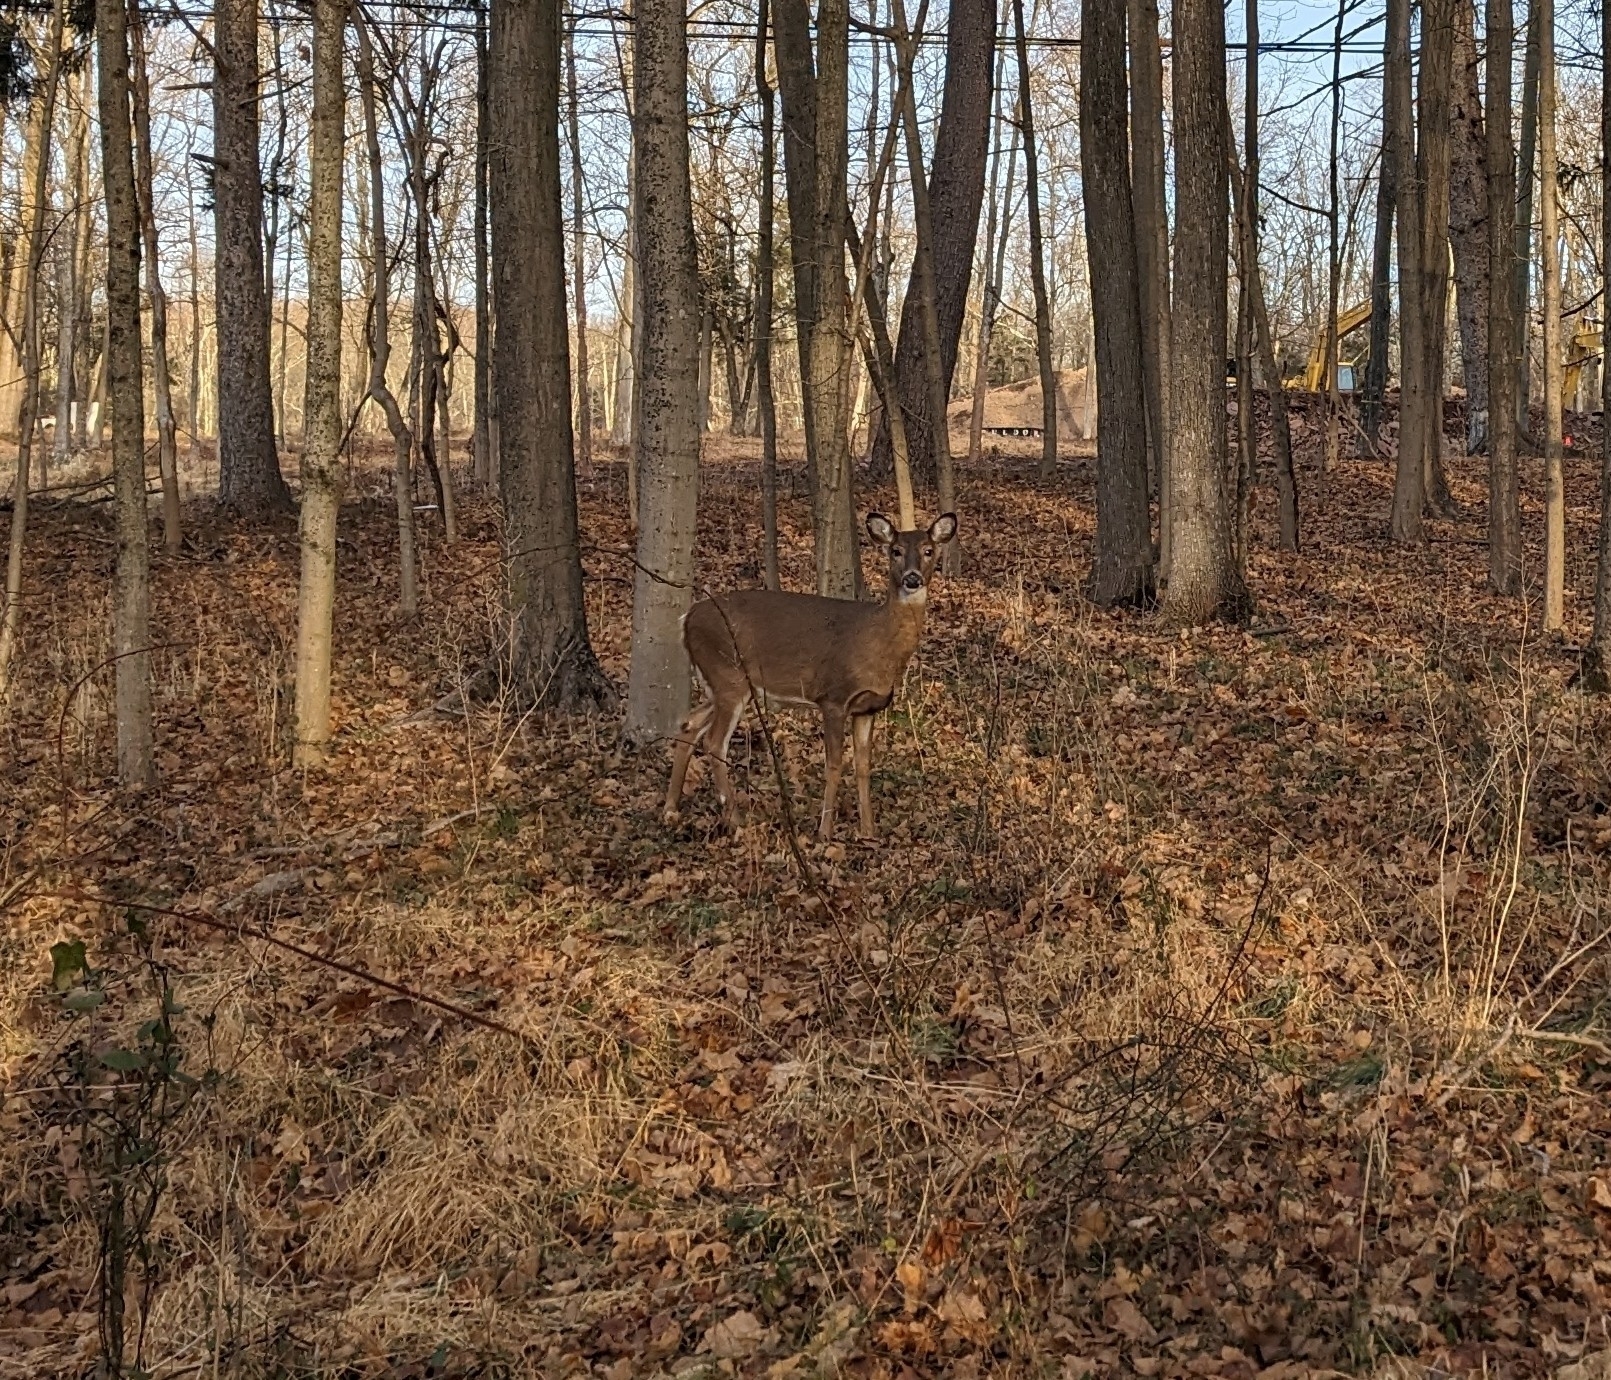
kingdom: Animalia
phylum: Chordata
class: Mammalia
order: Artiodactyla
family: Cervidae
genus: Odocoileus
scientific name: Odocoileus virginianus
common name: White-tailed deer
